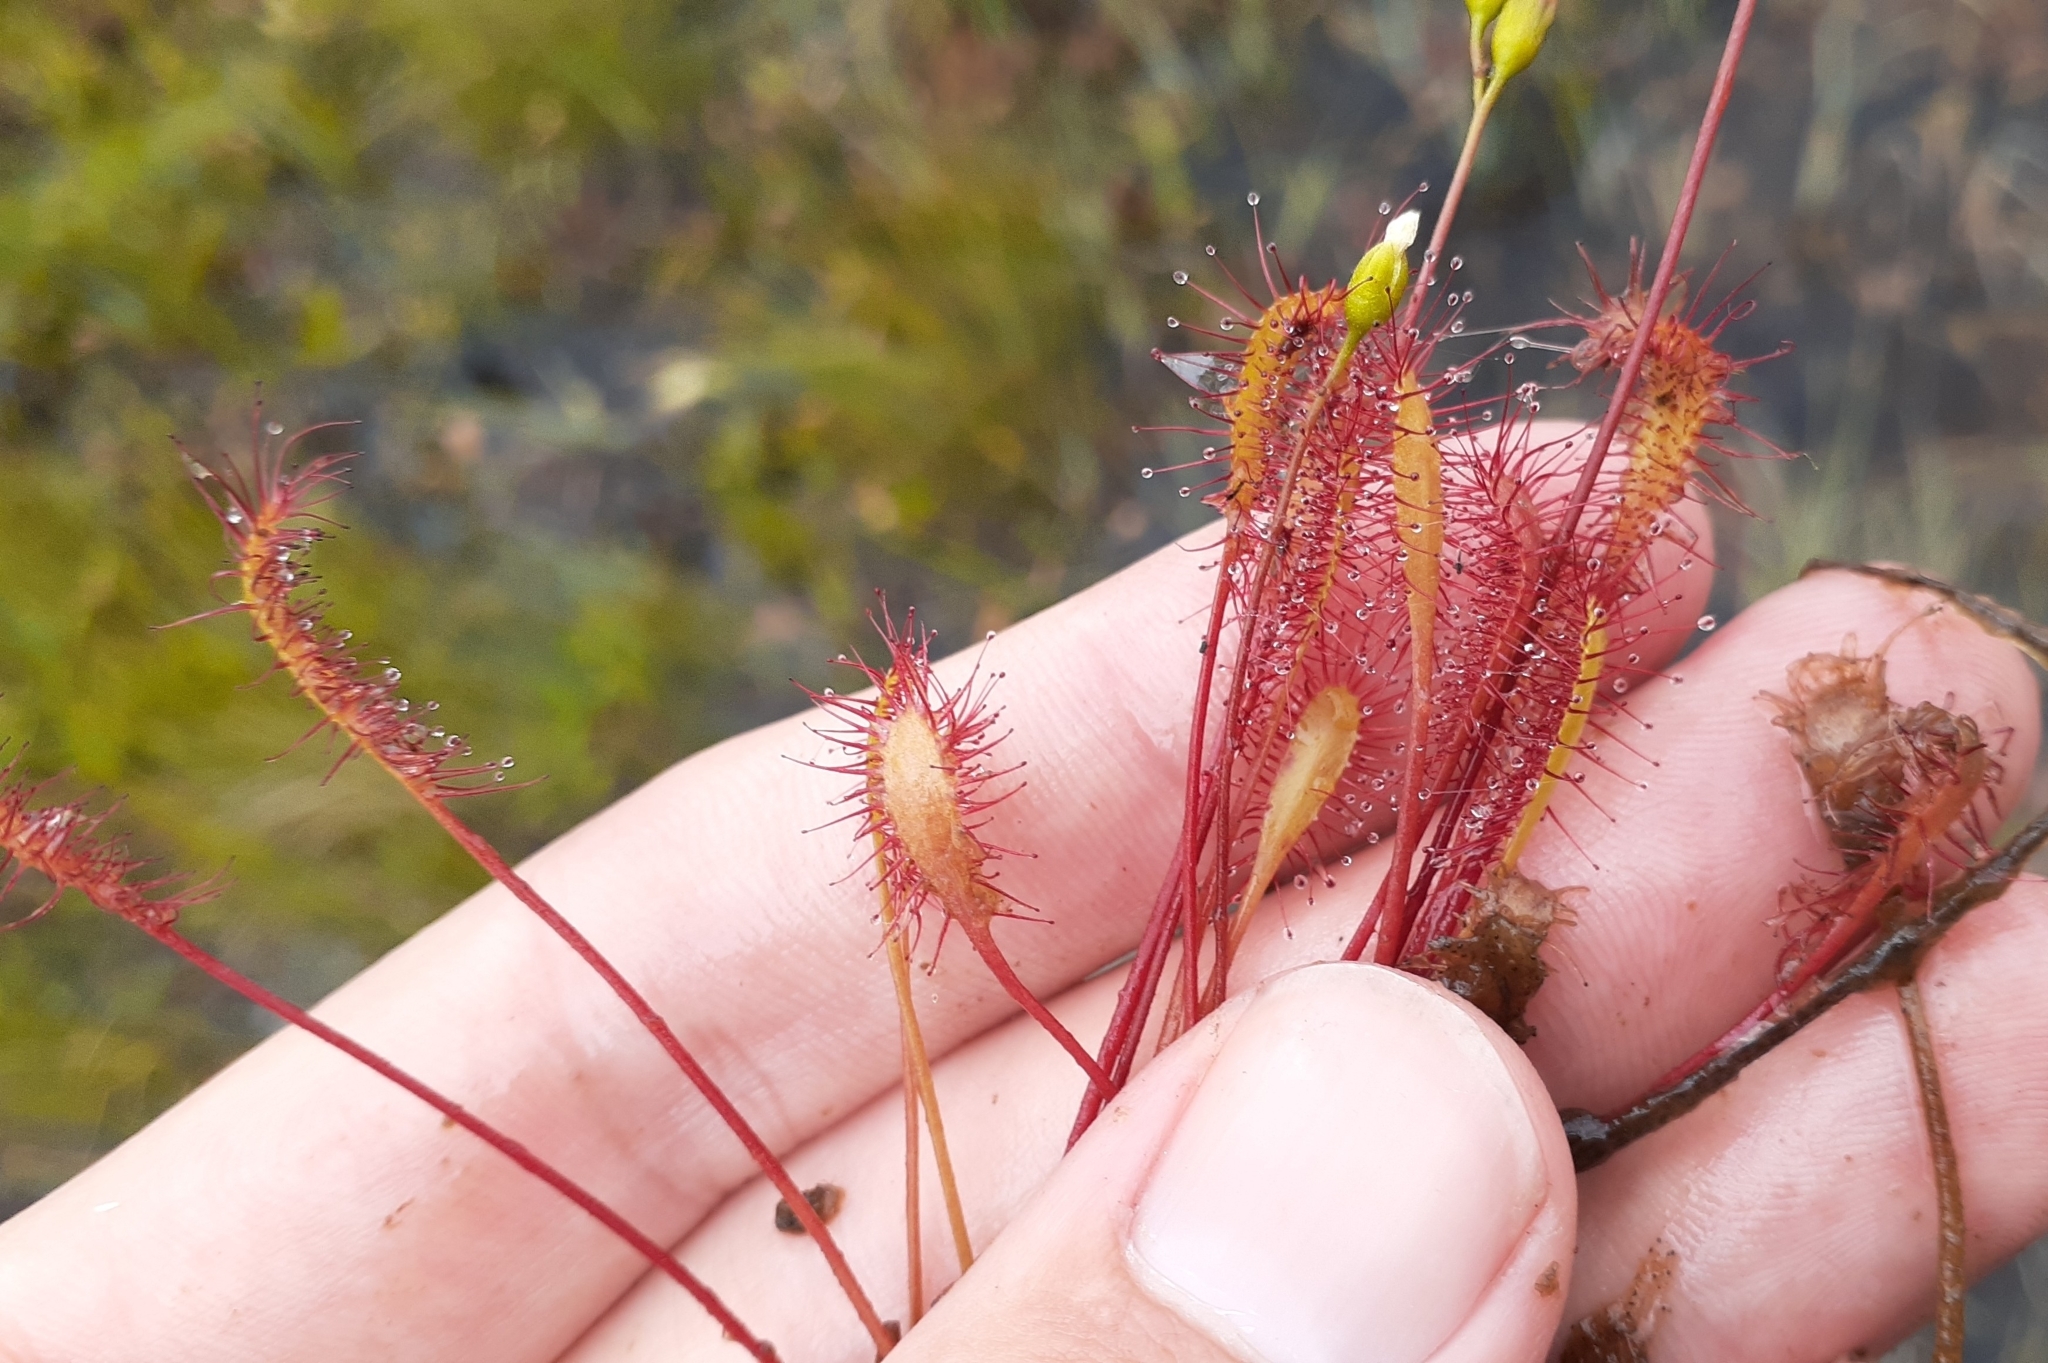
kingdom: Plantae
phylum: Tracheophyta
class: Magnoliopsida
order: Caryophyllales
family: Droseraceae
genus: Drosera
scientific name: Drosera anglica
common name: Great sundew
